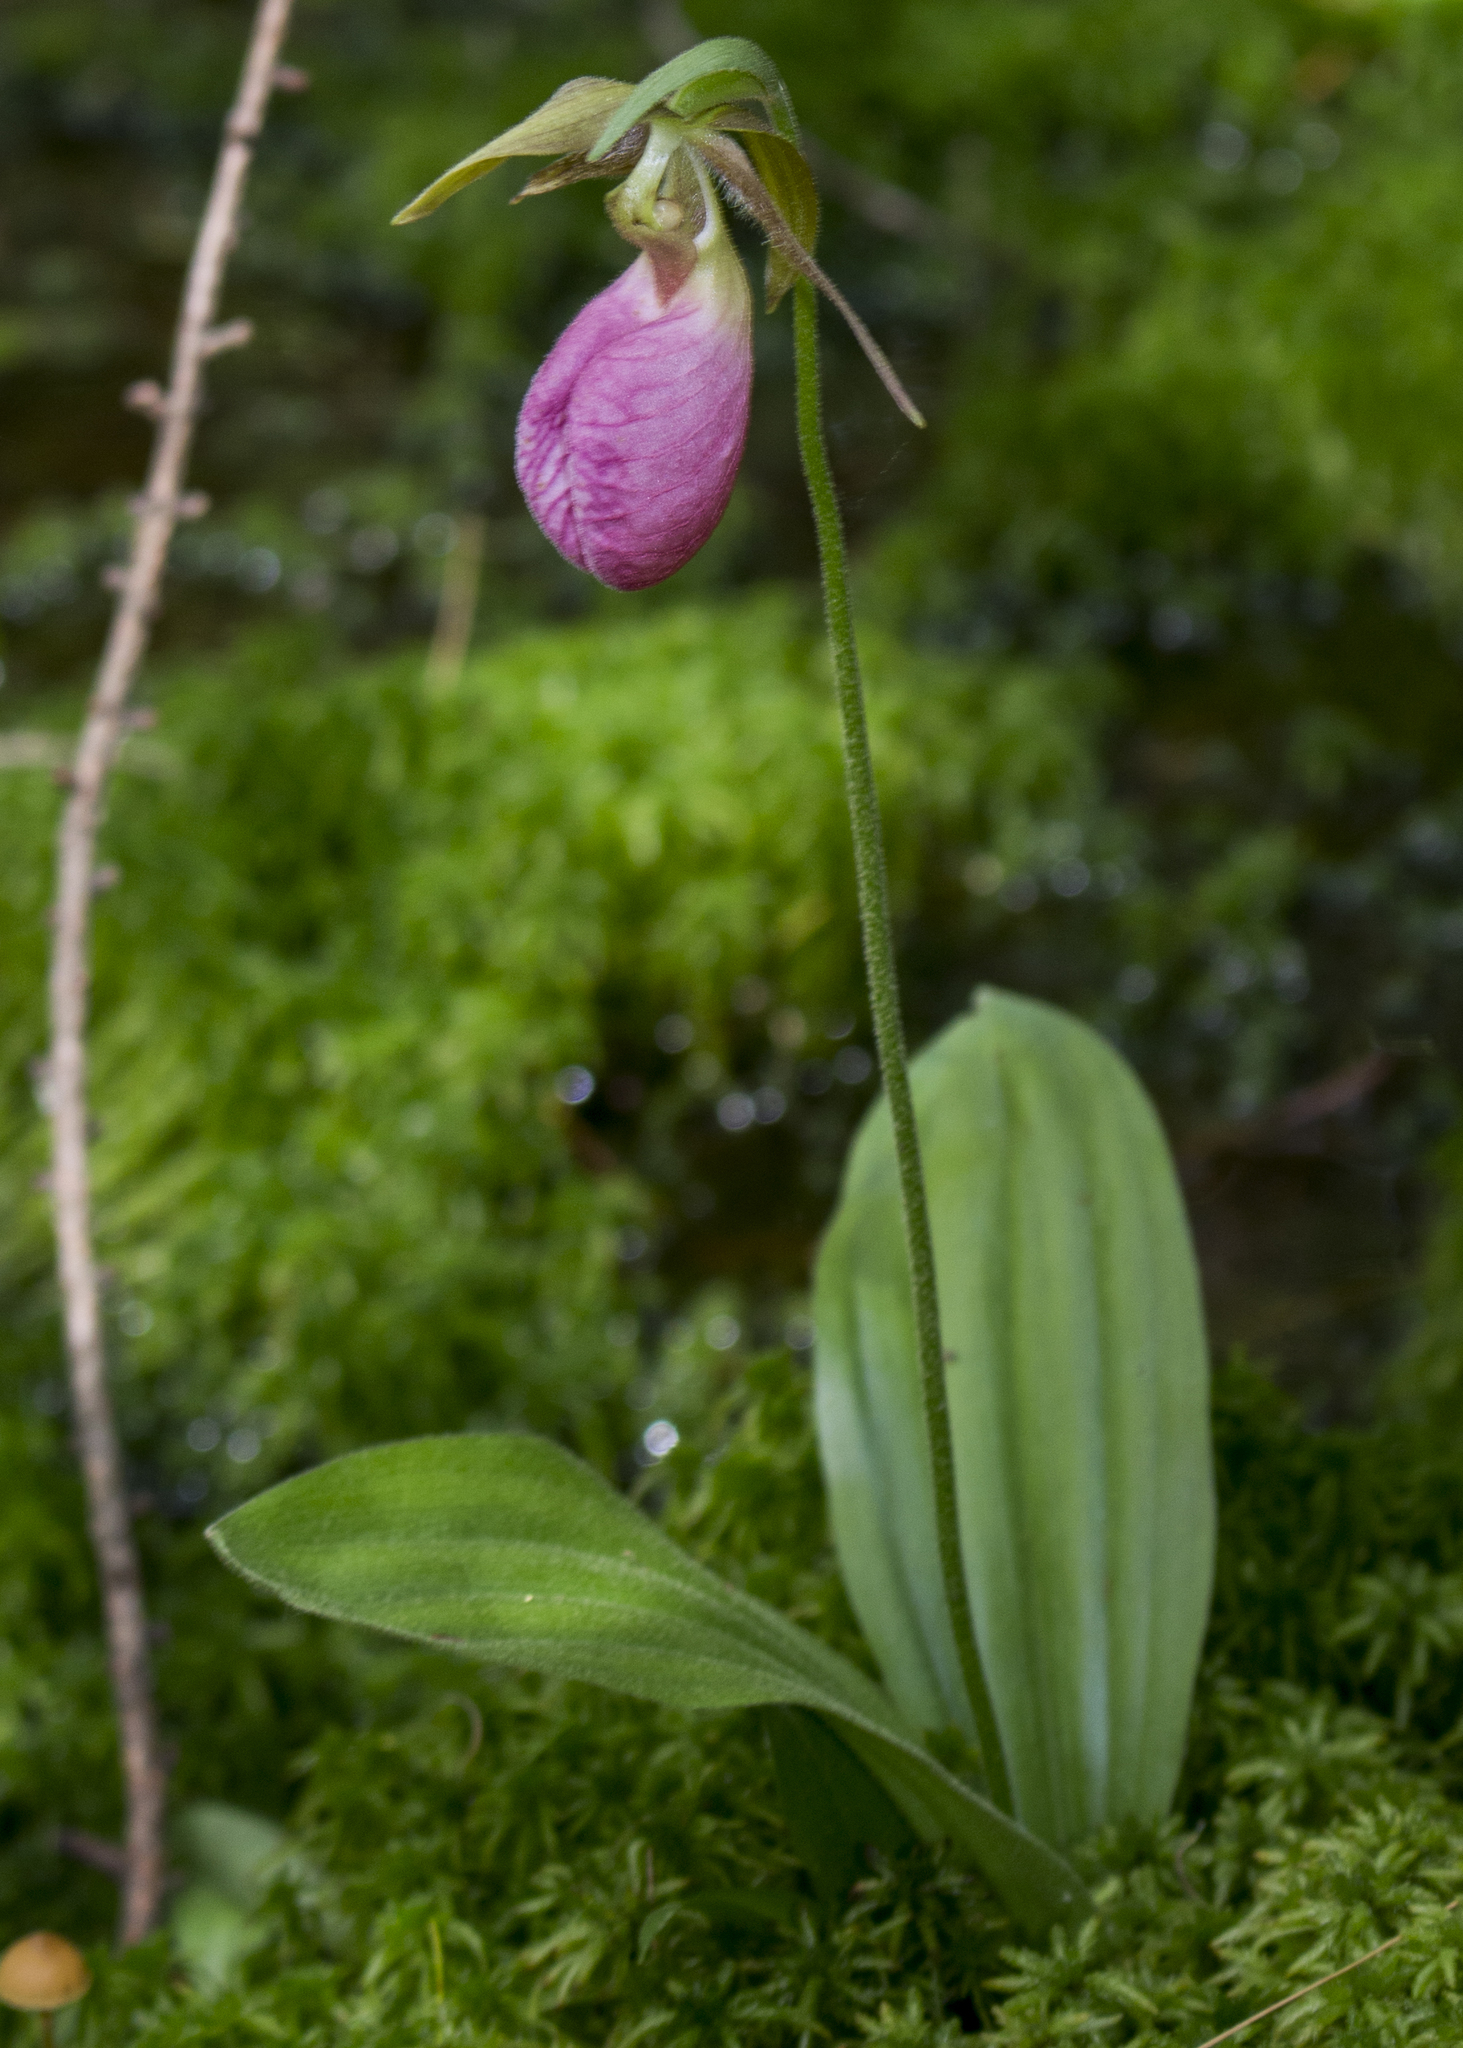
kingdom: Plantae
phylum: Tracheophyta
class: Liliopsida
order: Asparagales
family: Orchidaceae
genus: Cypripedium
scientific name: Cypripedium acaule
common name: Pink lady's-slipper
